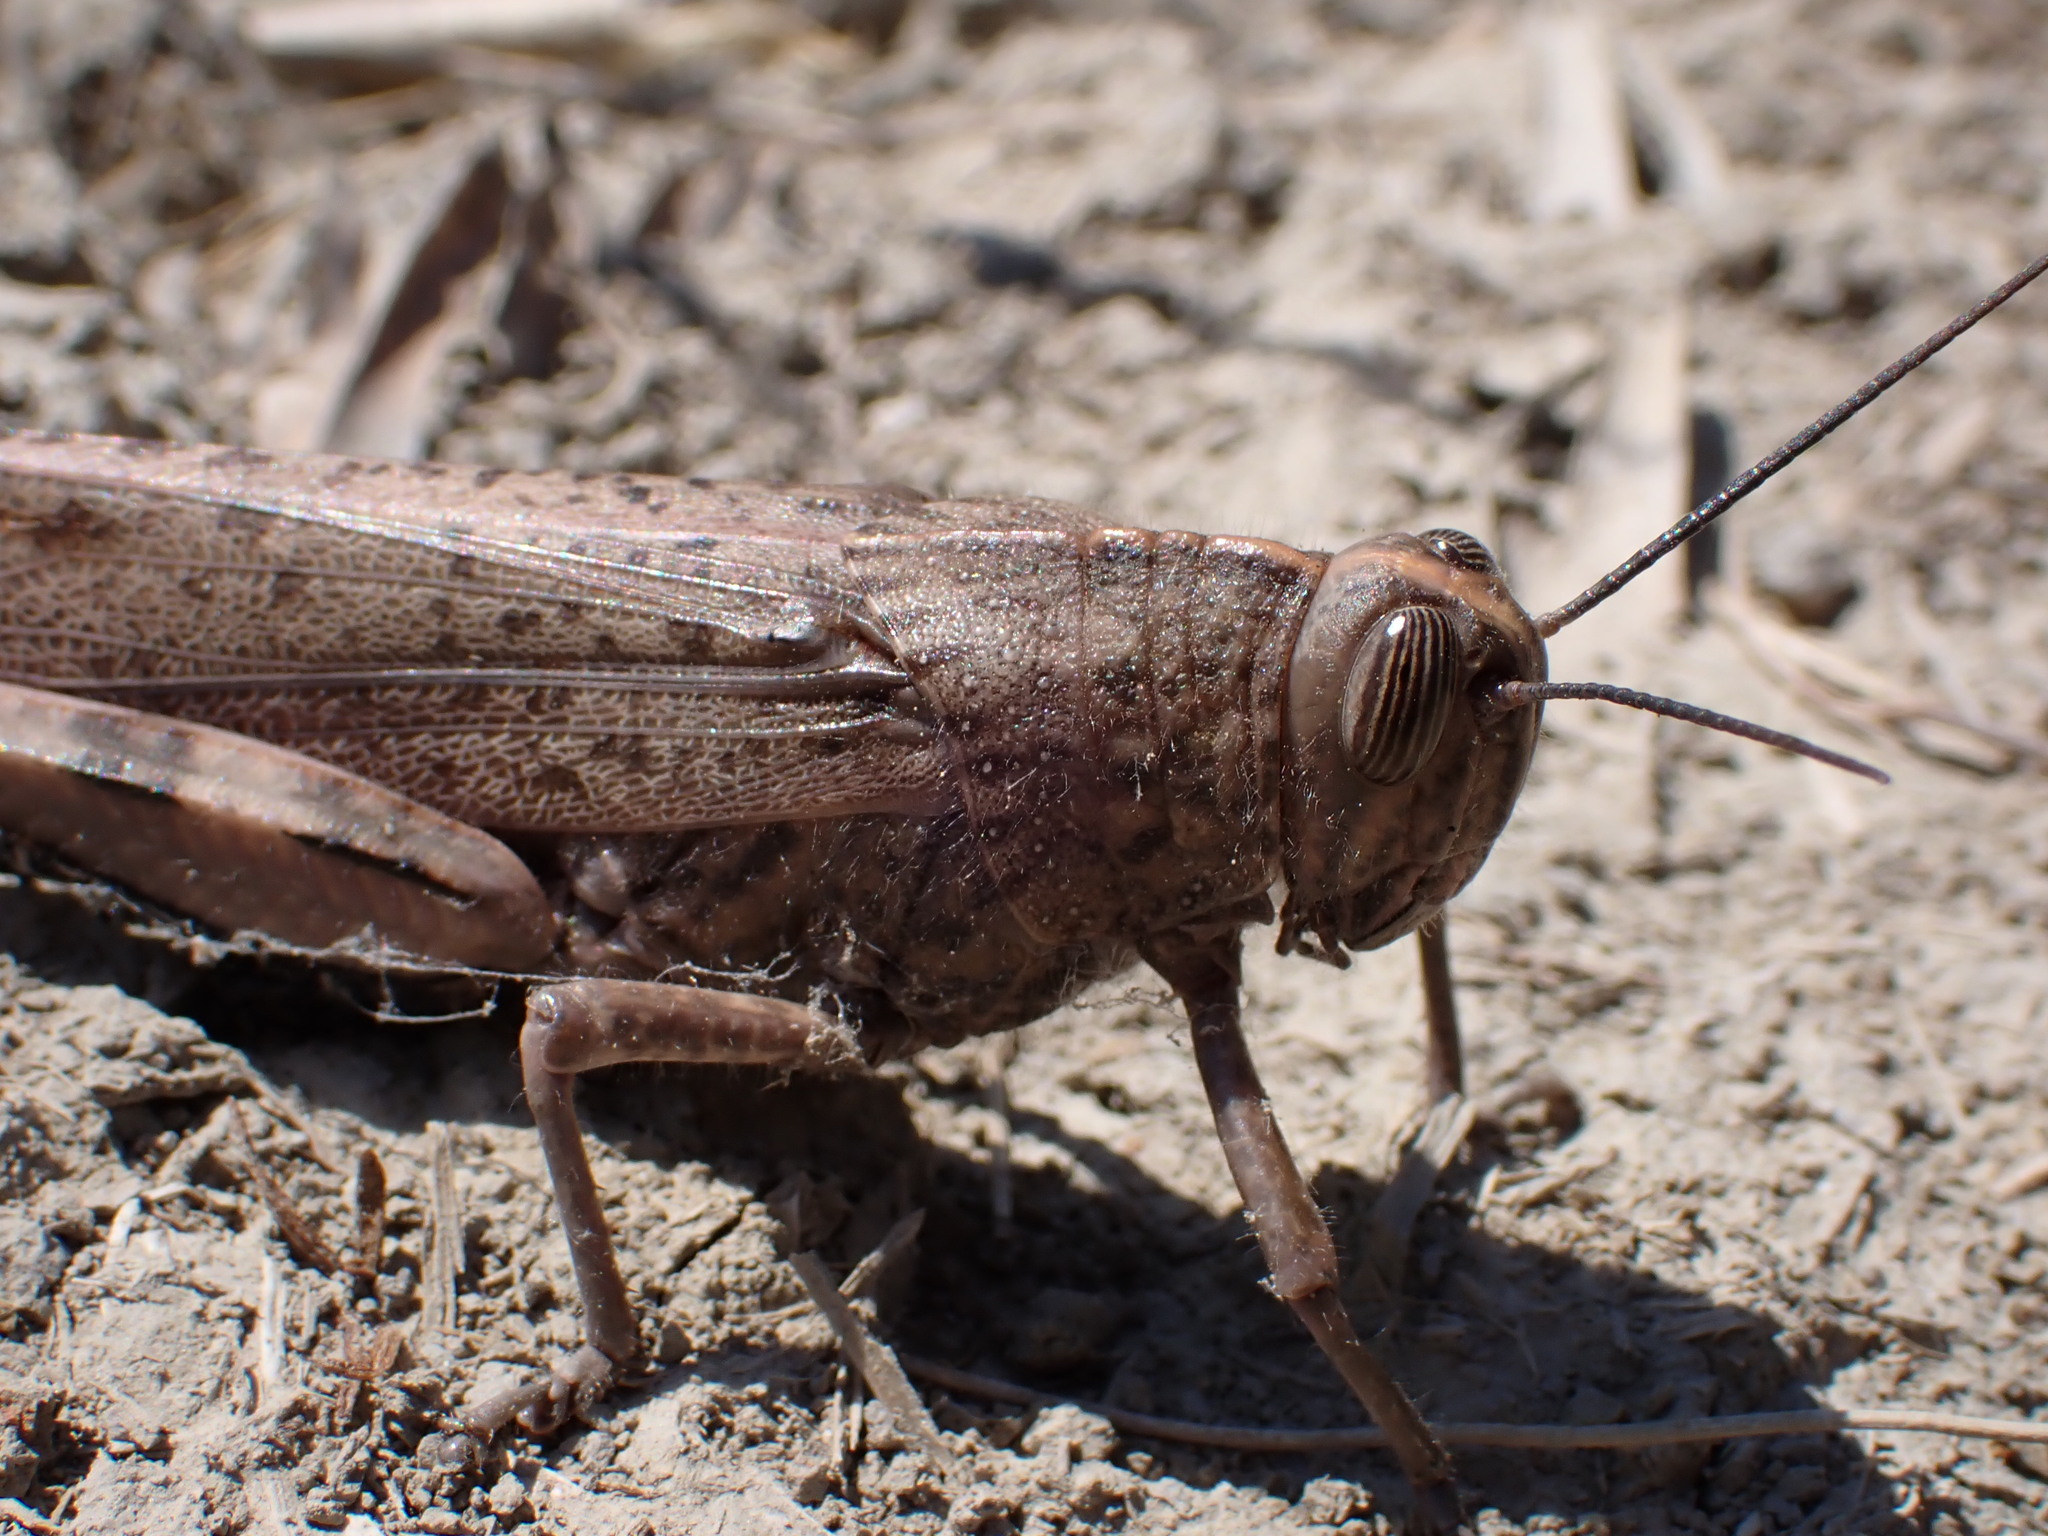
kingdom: Animalia
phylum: Arthropoda
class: Insecta
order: Orthoptera
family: Acrididae
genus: Anacridium
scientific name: Anacridium aegyptium
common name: Egyptian grasshopper
